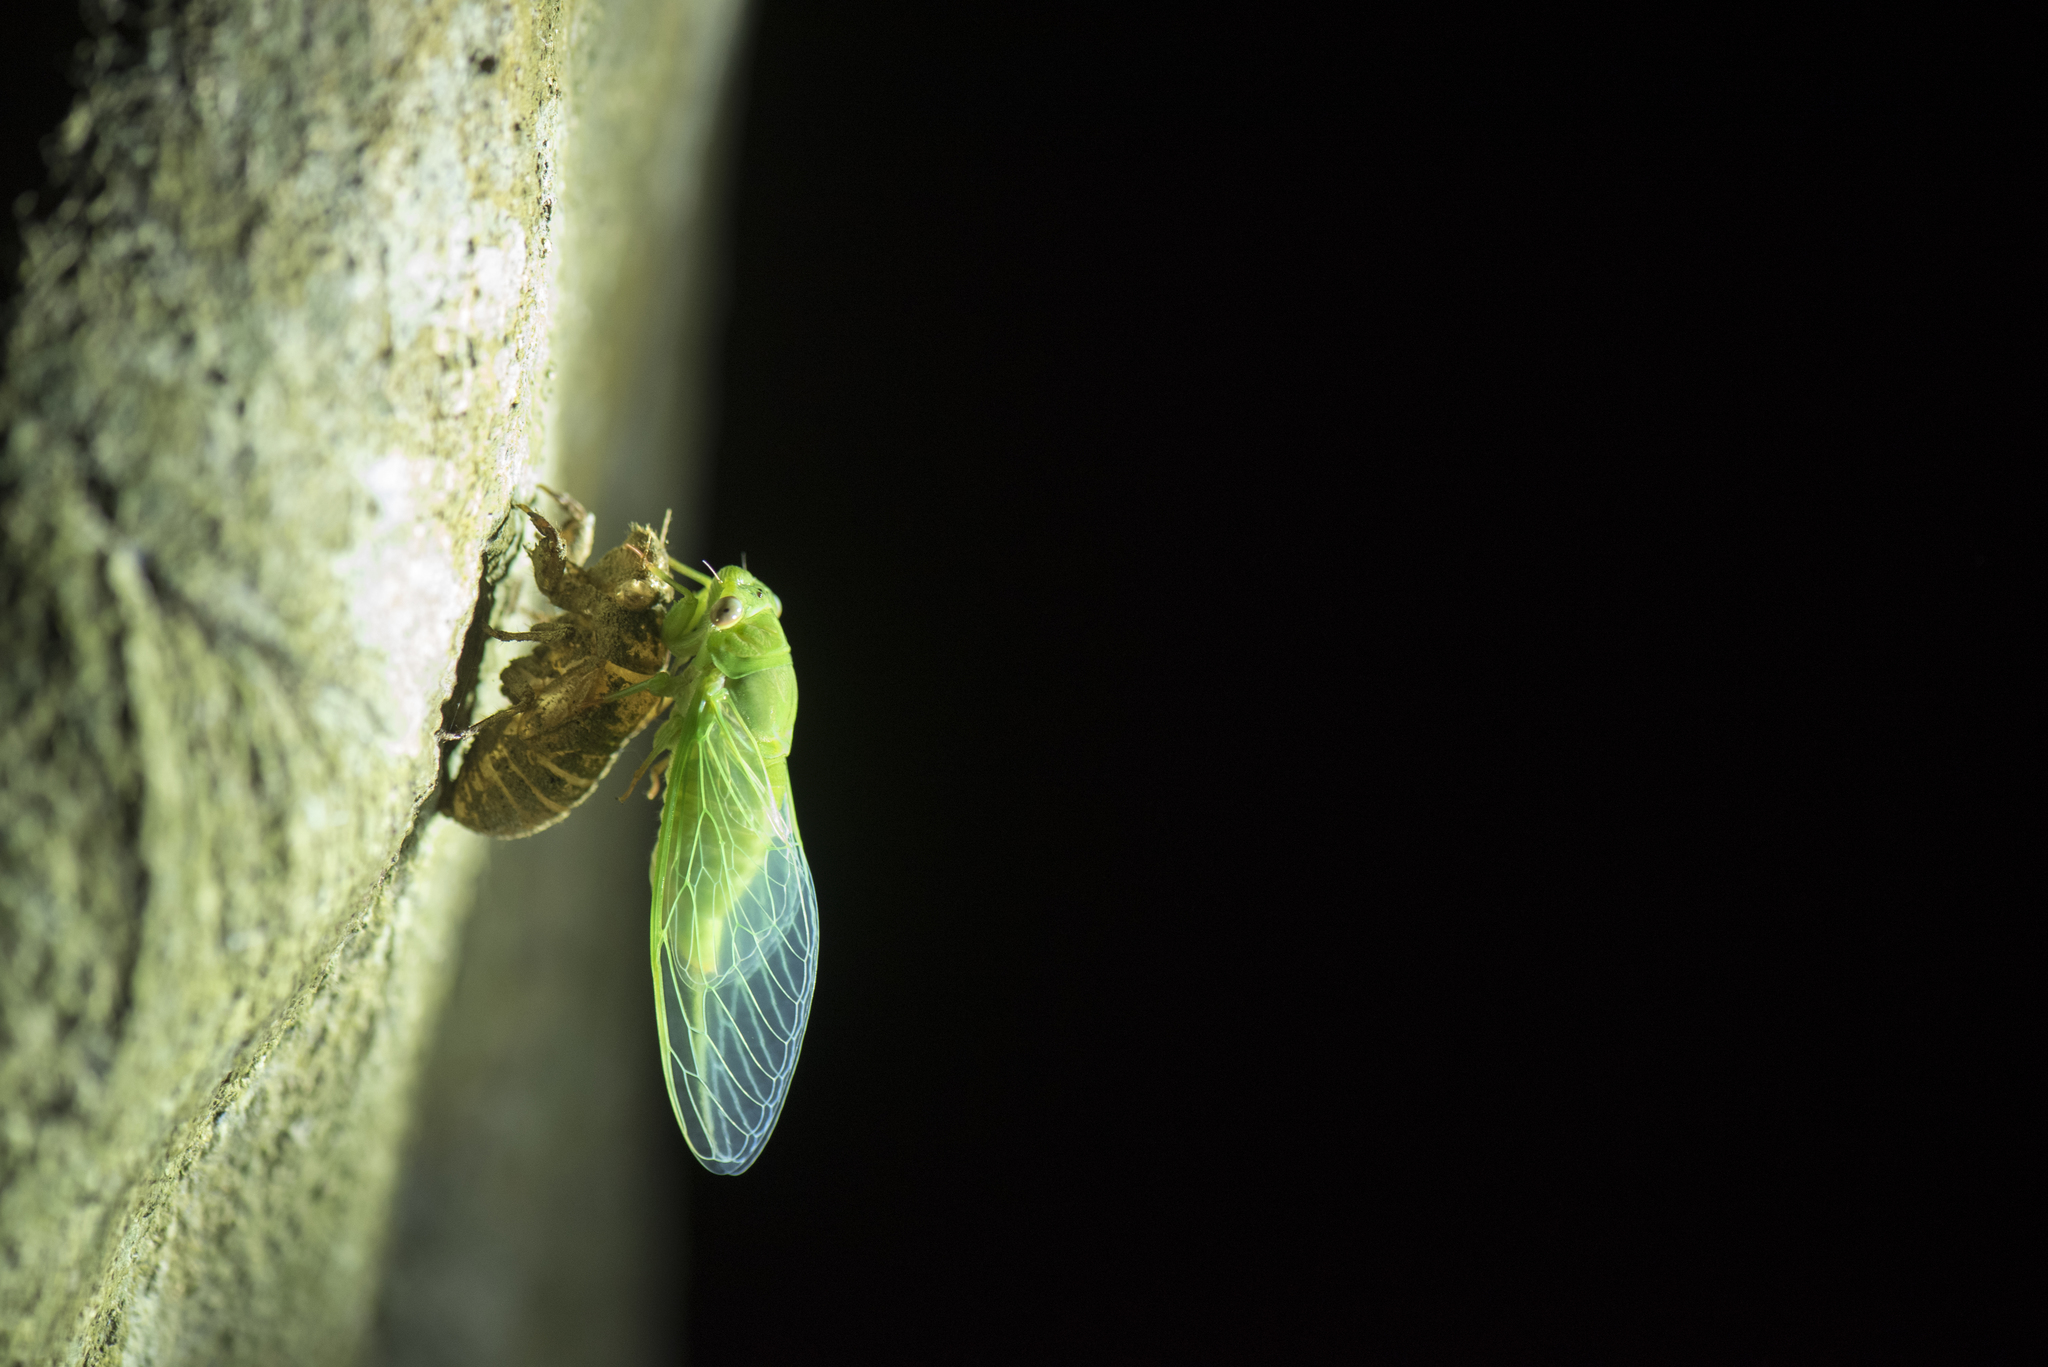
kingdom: Animalia
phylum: Arthropoda
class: Insecta
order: Hemiptera
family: Cicadidae
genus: Chremistica
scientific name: Chremistica ochracea
